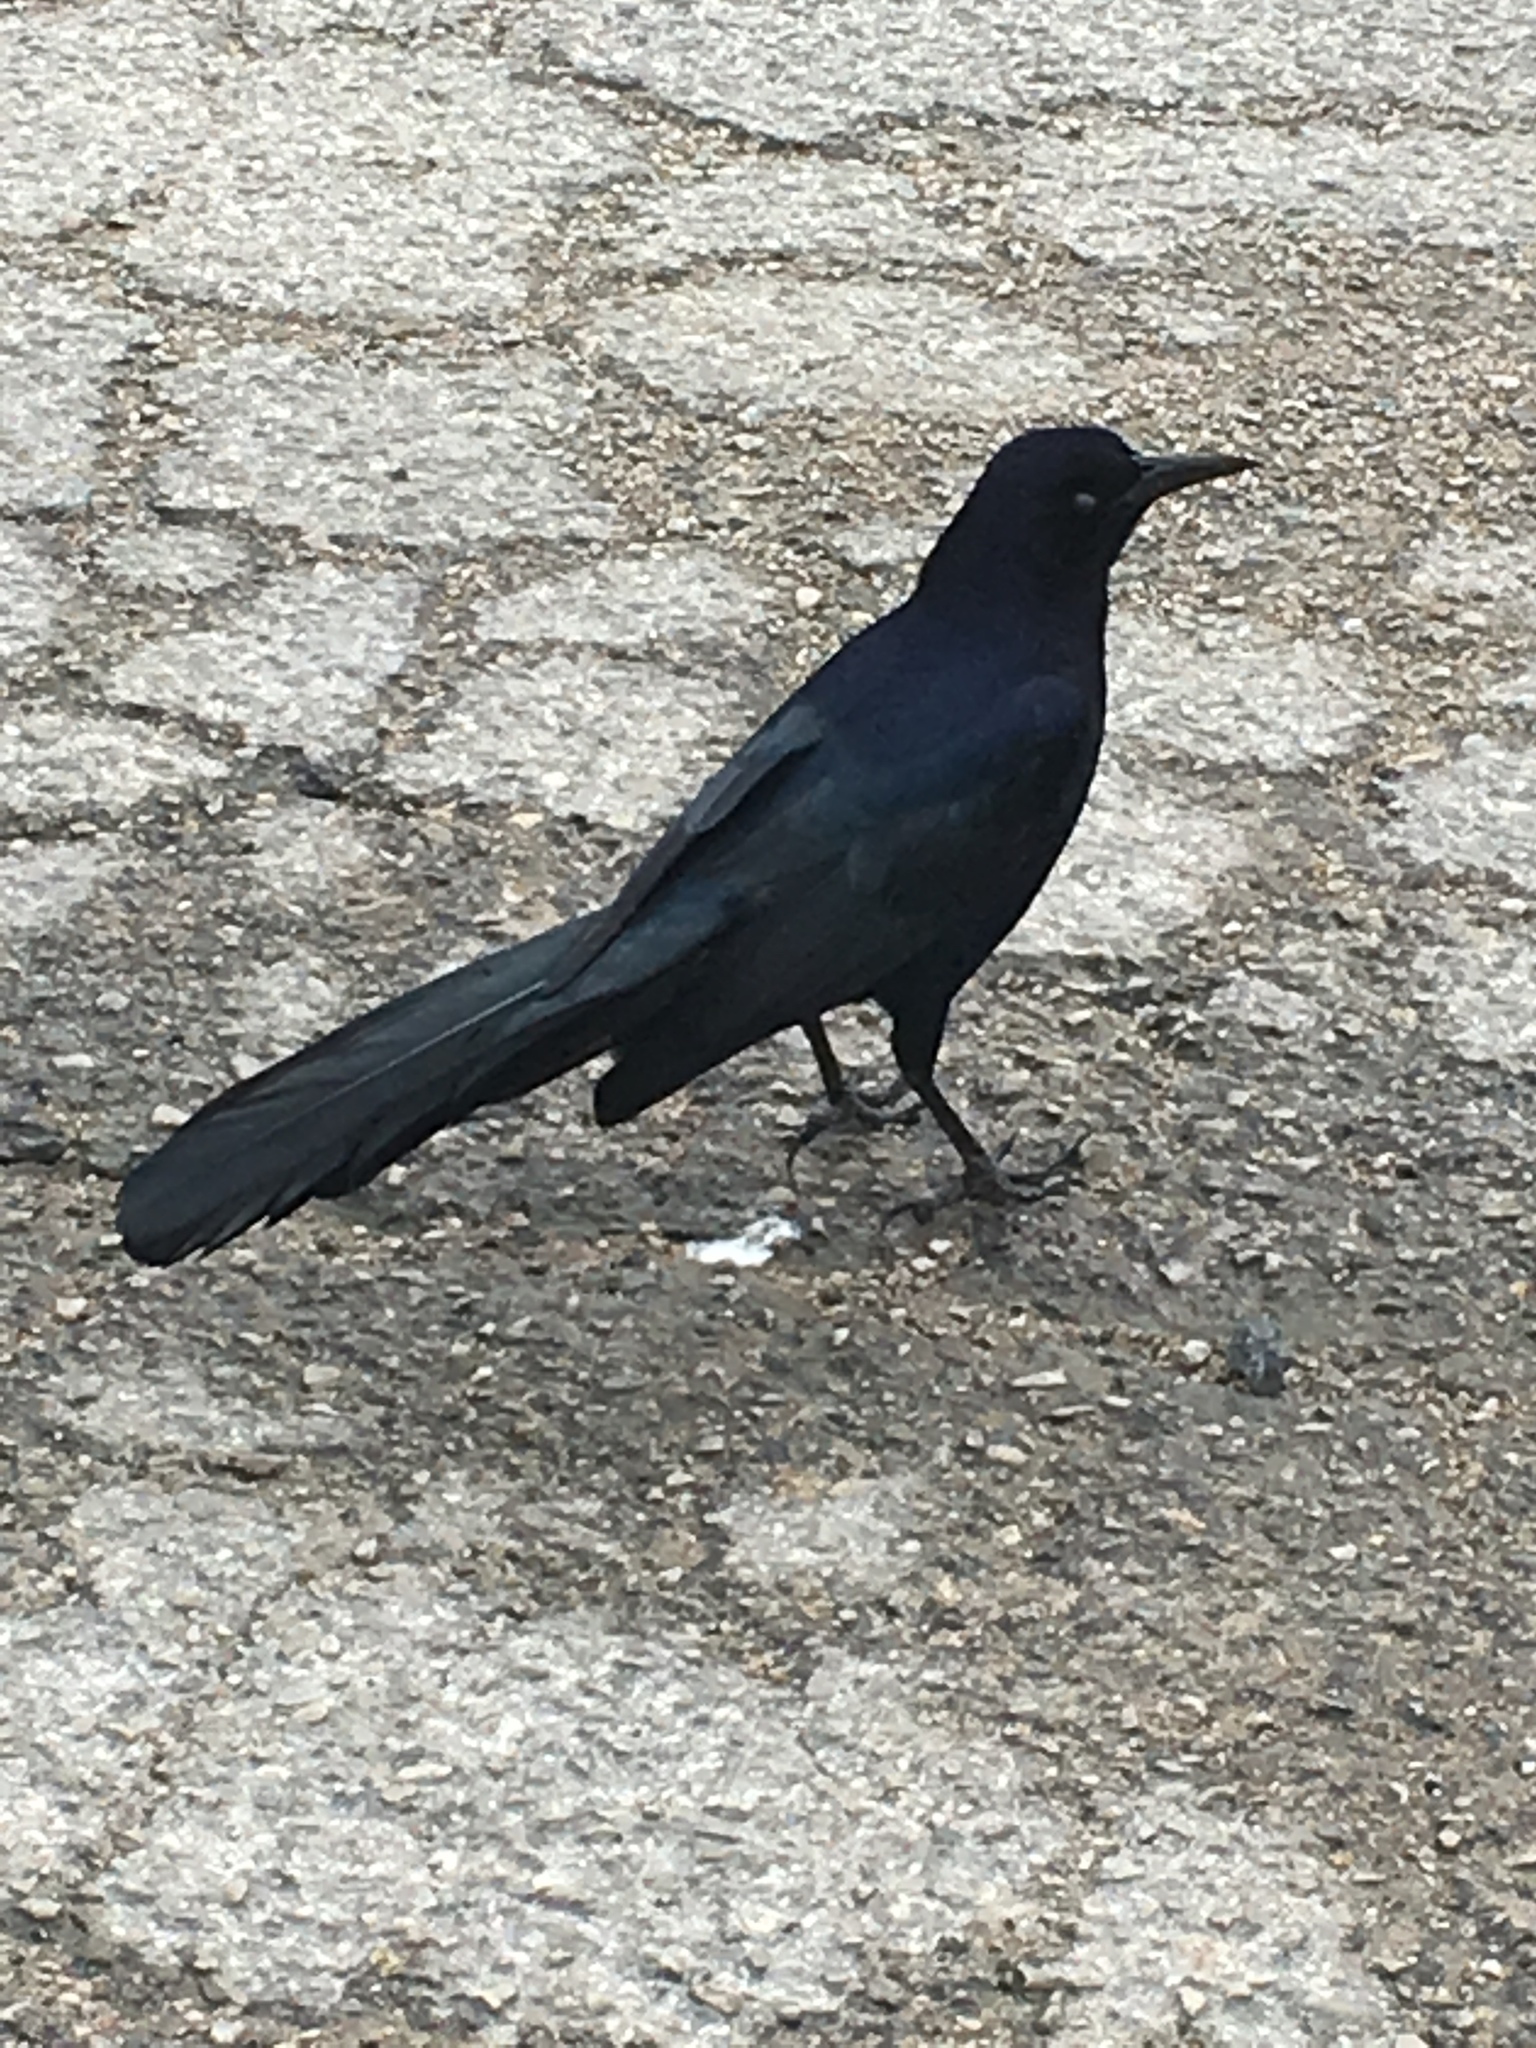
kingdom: Animalia
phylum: Chordata
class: Aves
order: Passeriformes
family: Icteridae
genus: Quiscalus
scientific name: Quiscalus mexicanus
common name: Great-tailed grackle
